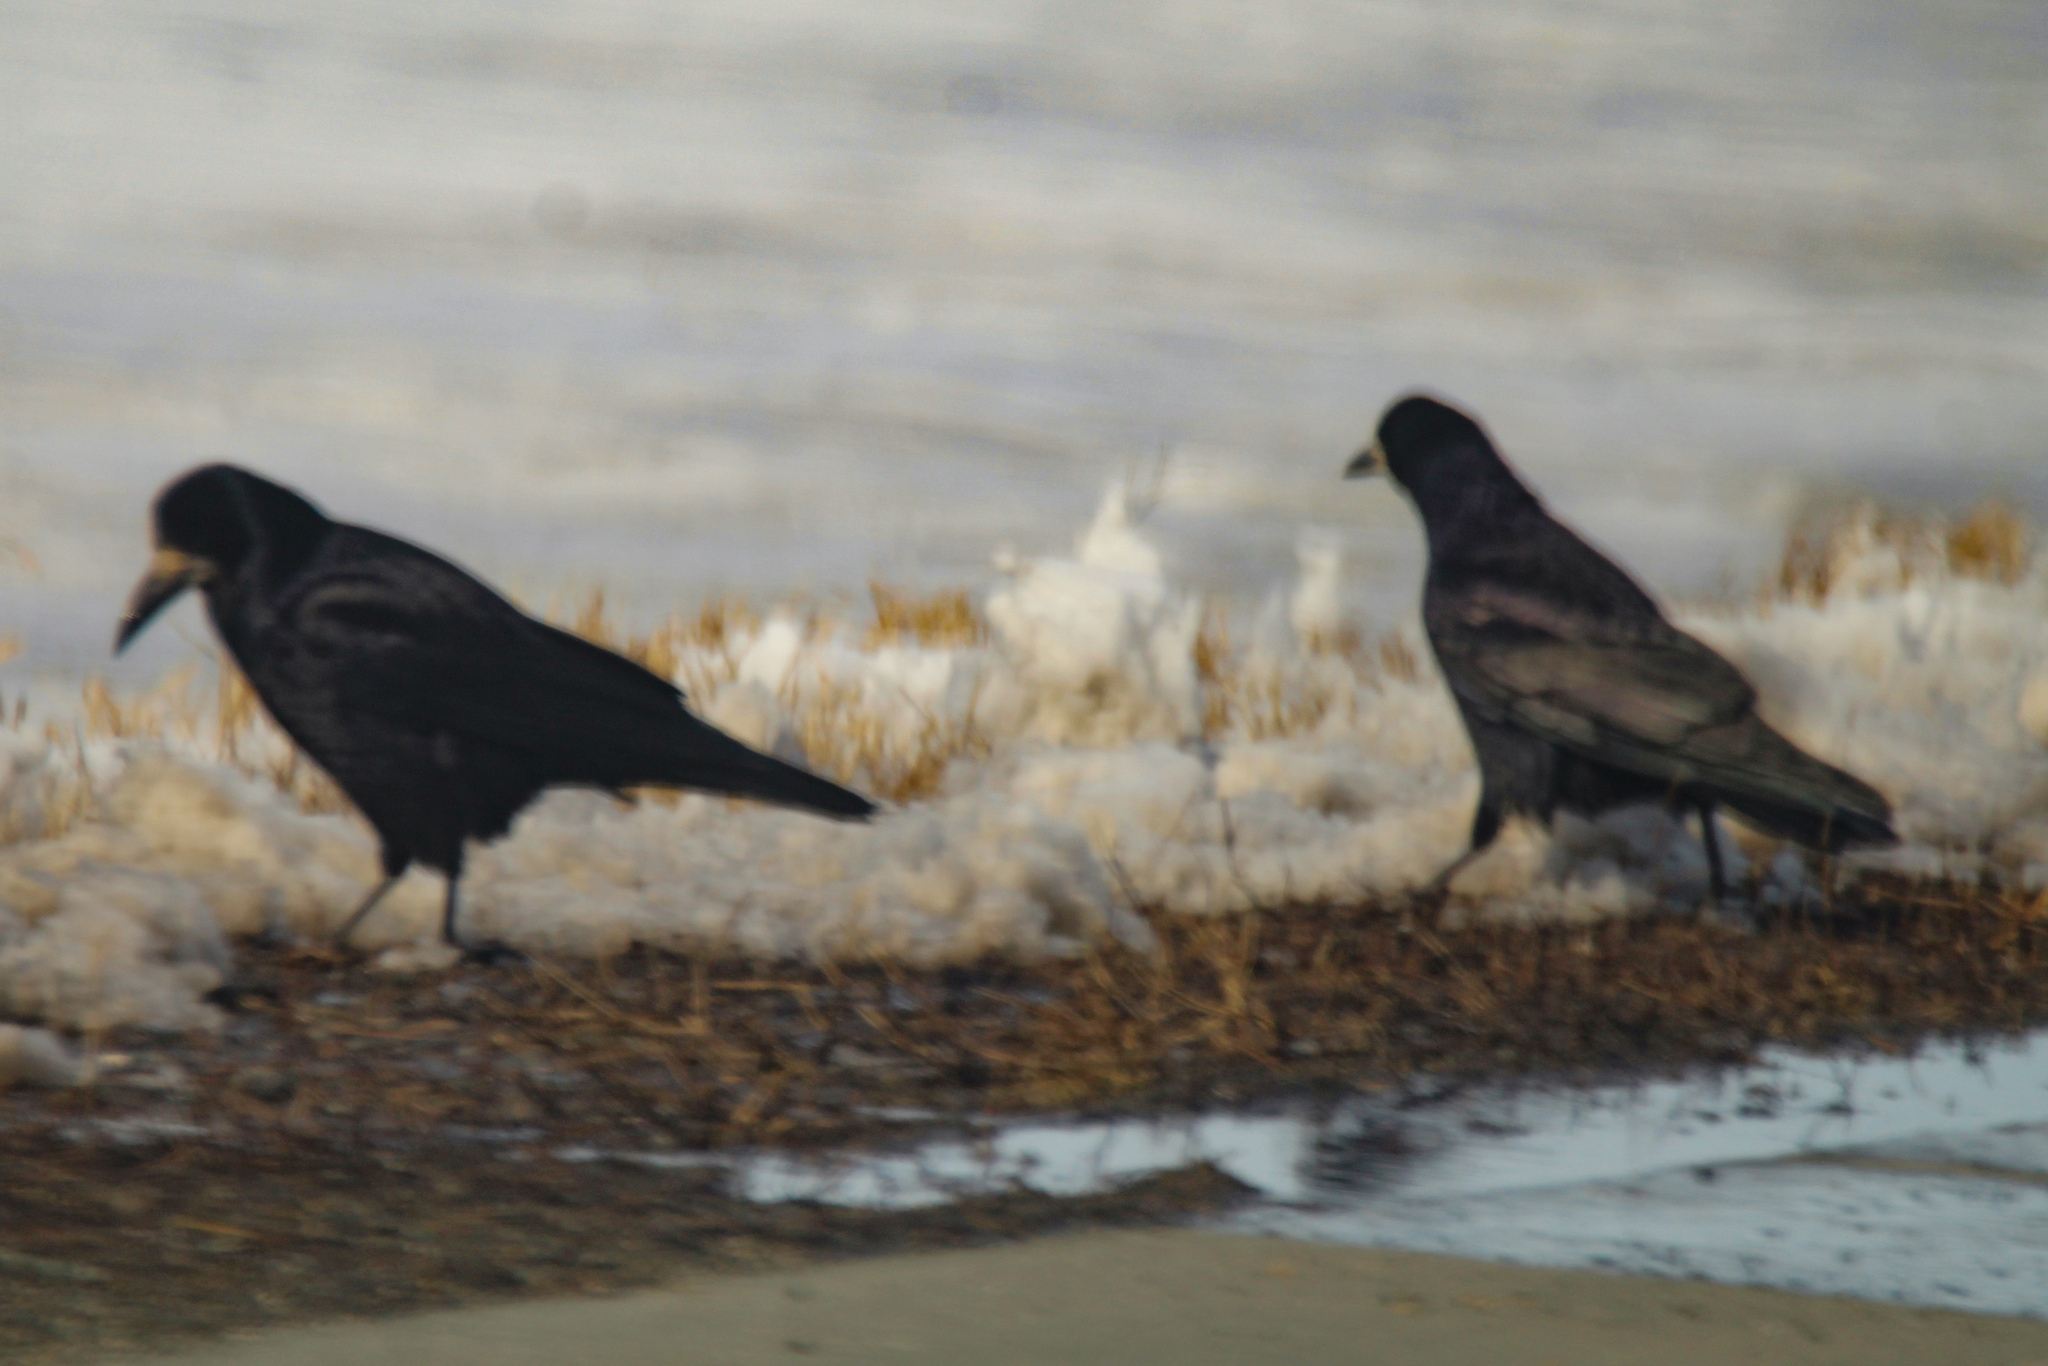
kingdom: Animalia
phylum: Chordata
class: Aves
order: Passeriformes
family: Corvidae
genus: Corvus
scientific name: Corvus frugilegus
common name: Rook
